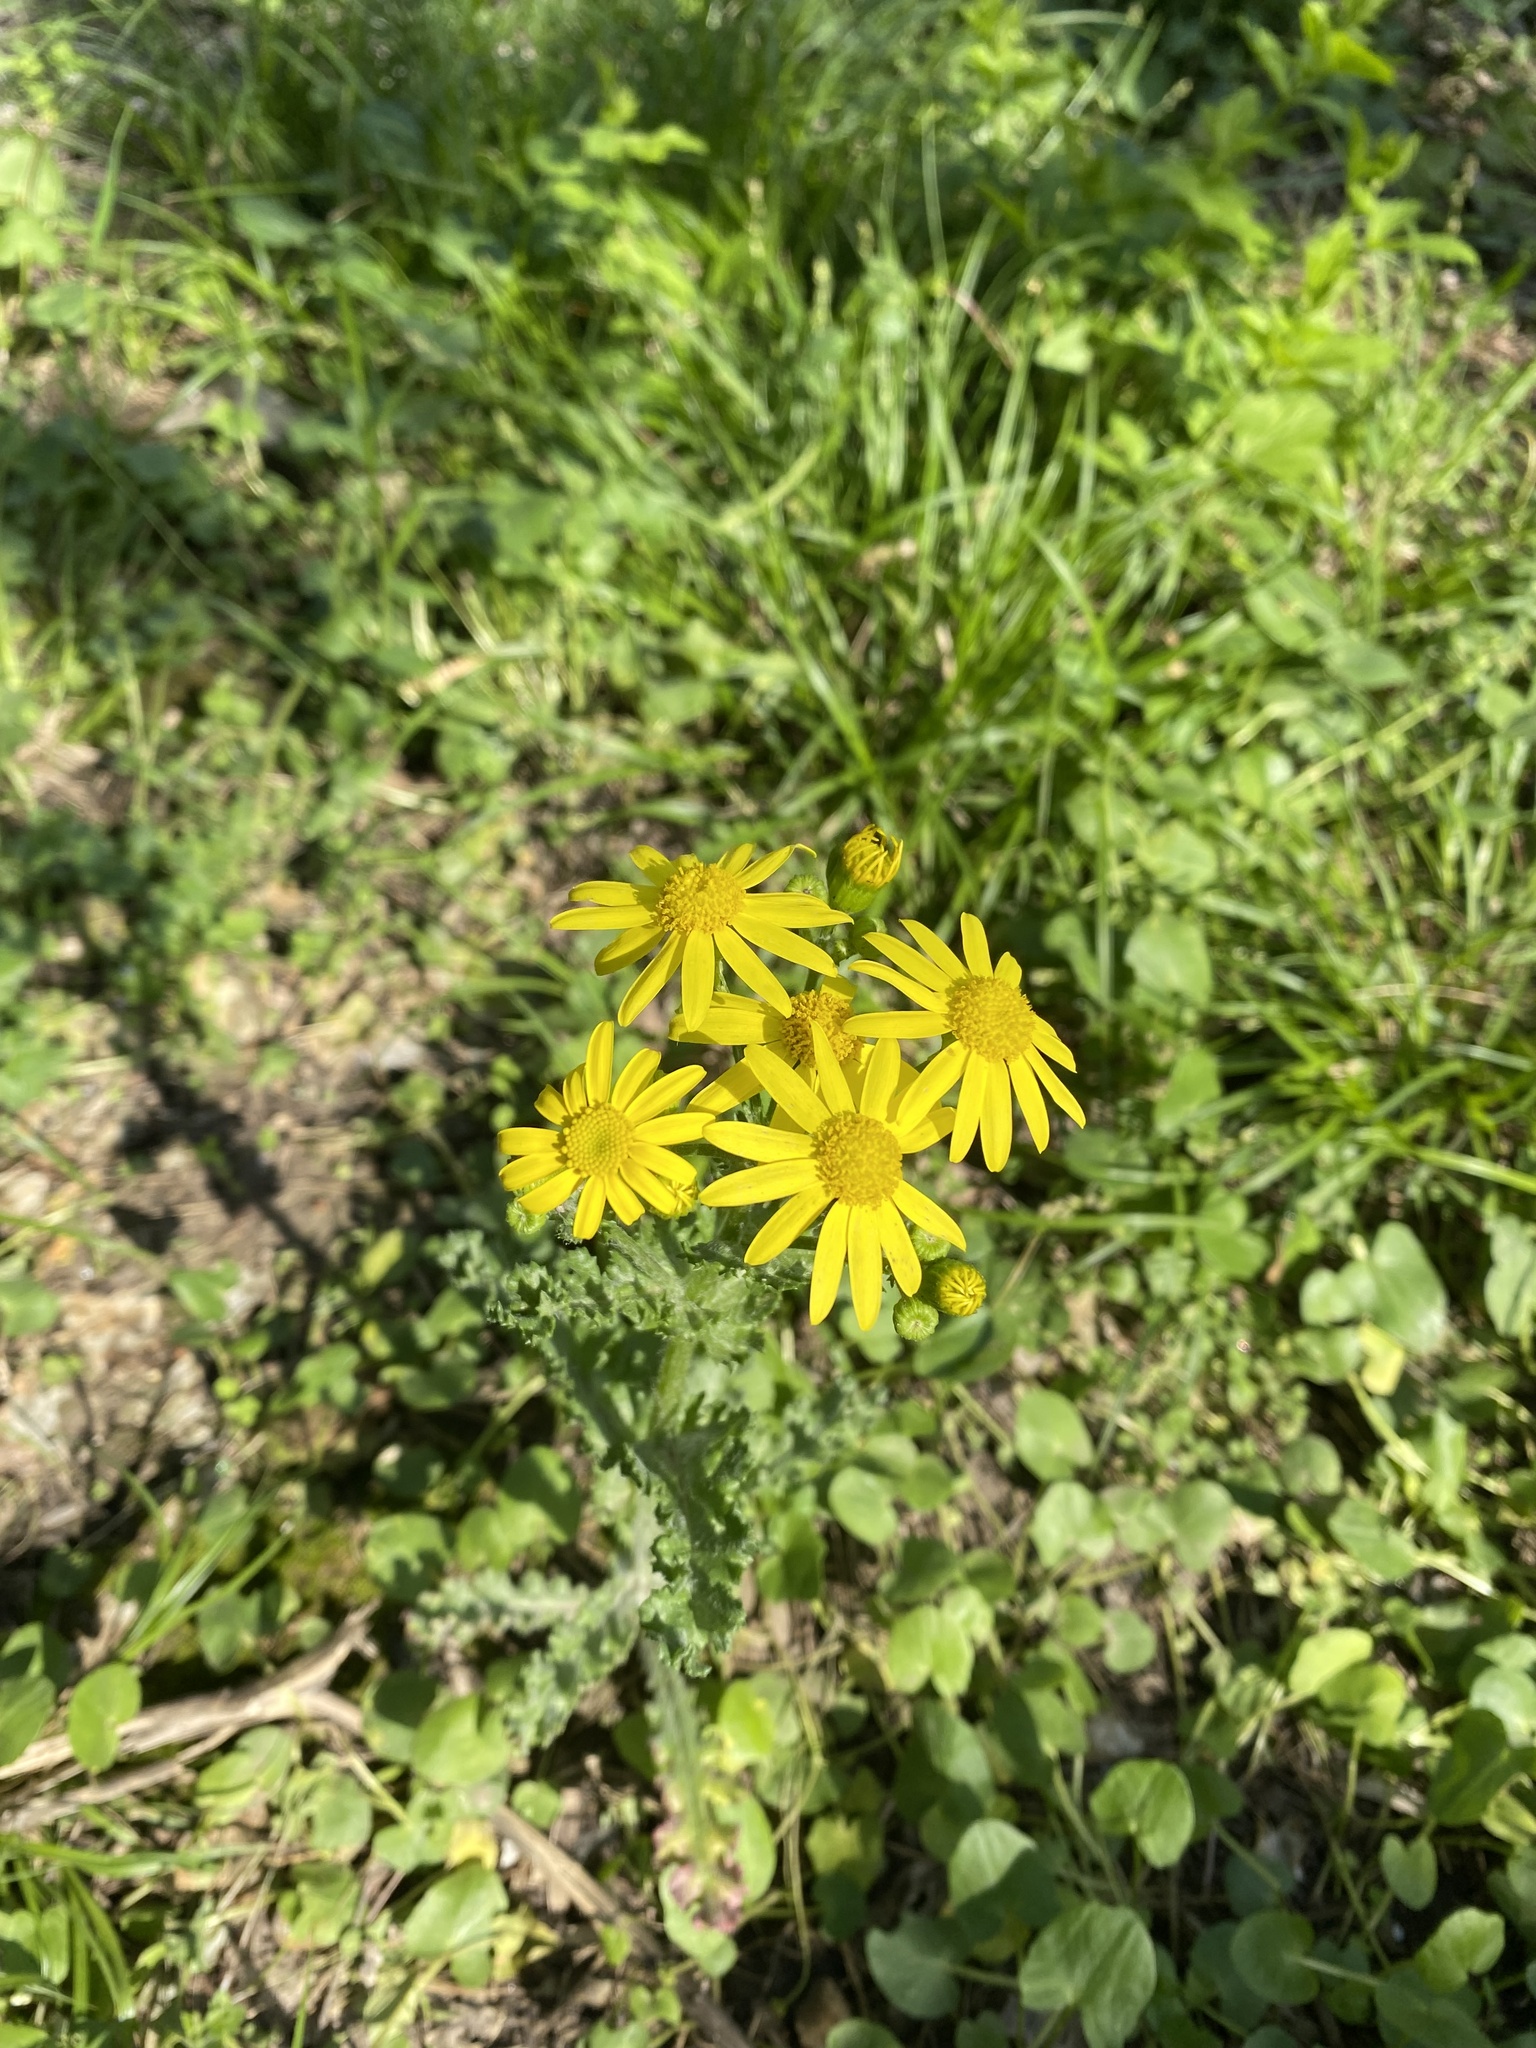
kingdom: Plantae
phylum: Tracheophyta
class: Magnoliopsida
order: Asterales
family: Asteraceae
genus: Senecio
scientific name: Senecio vernalis
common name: Eastern groundsel
